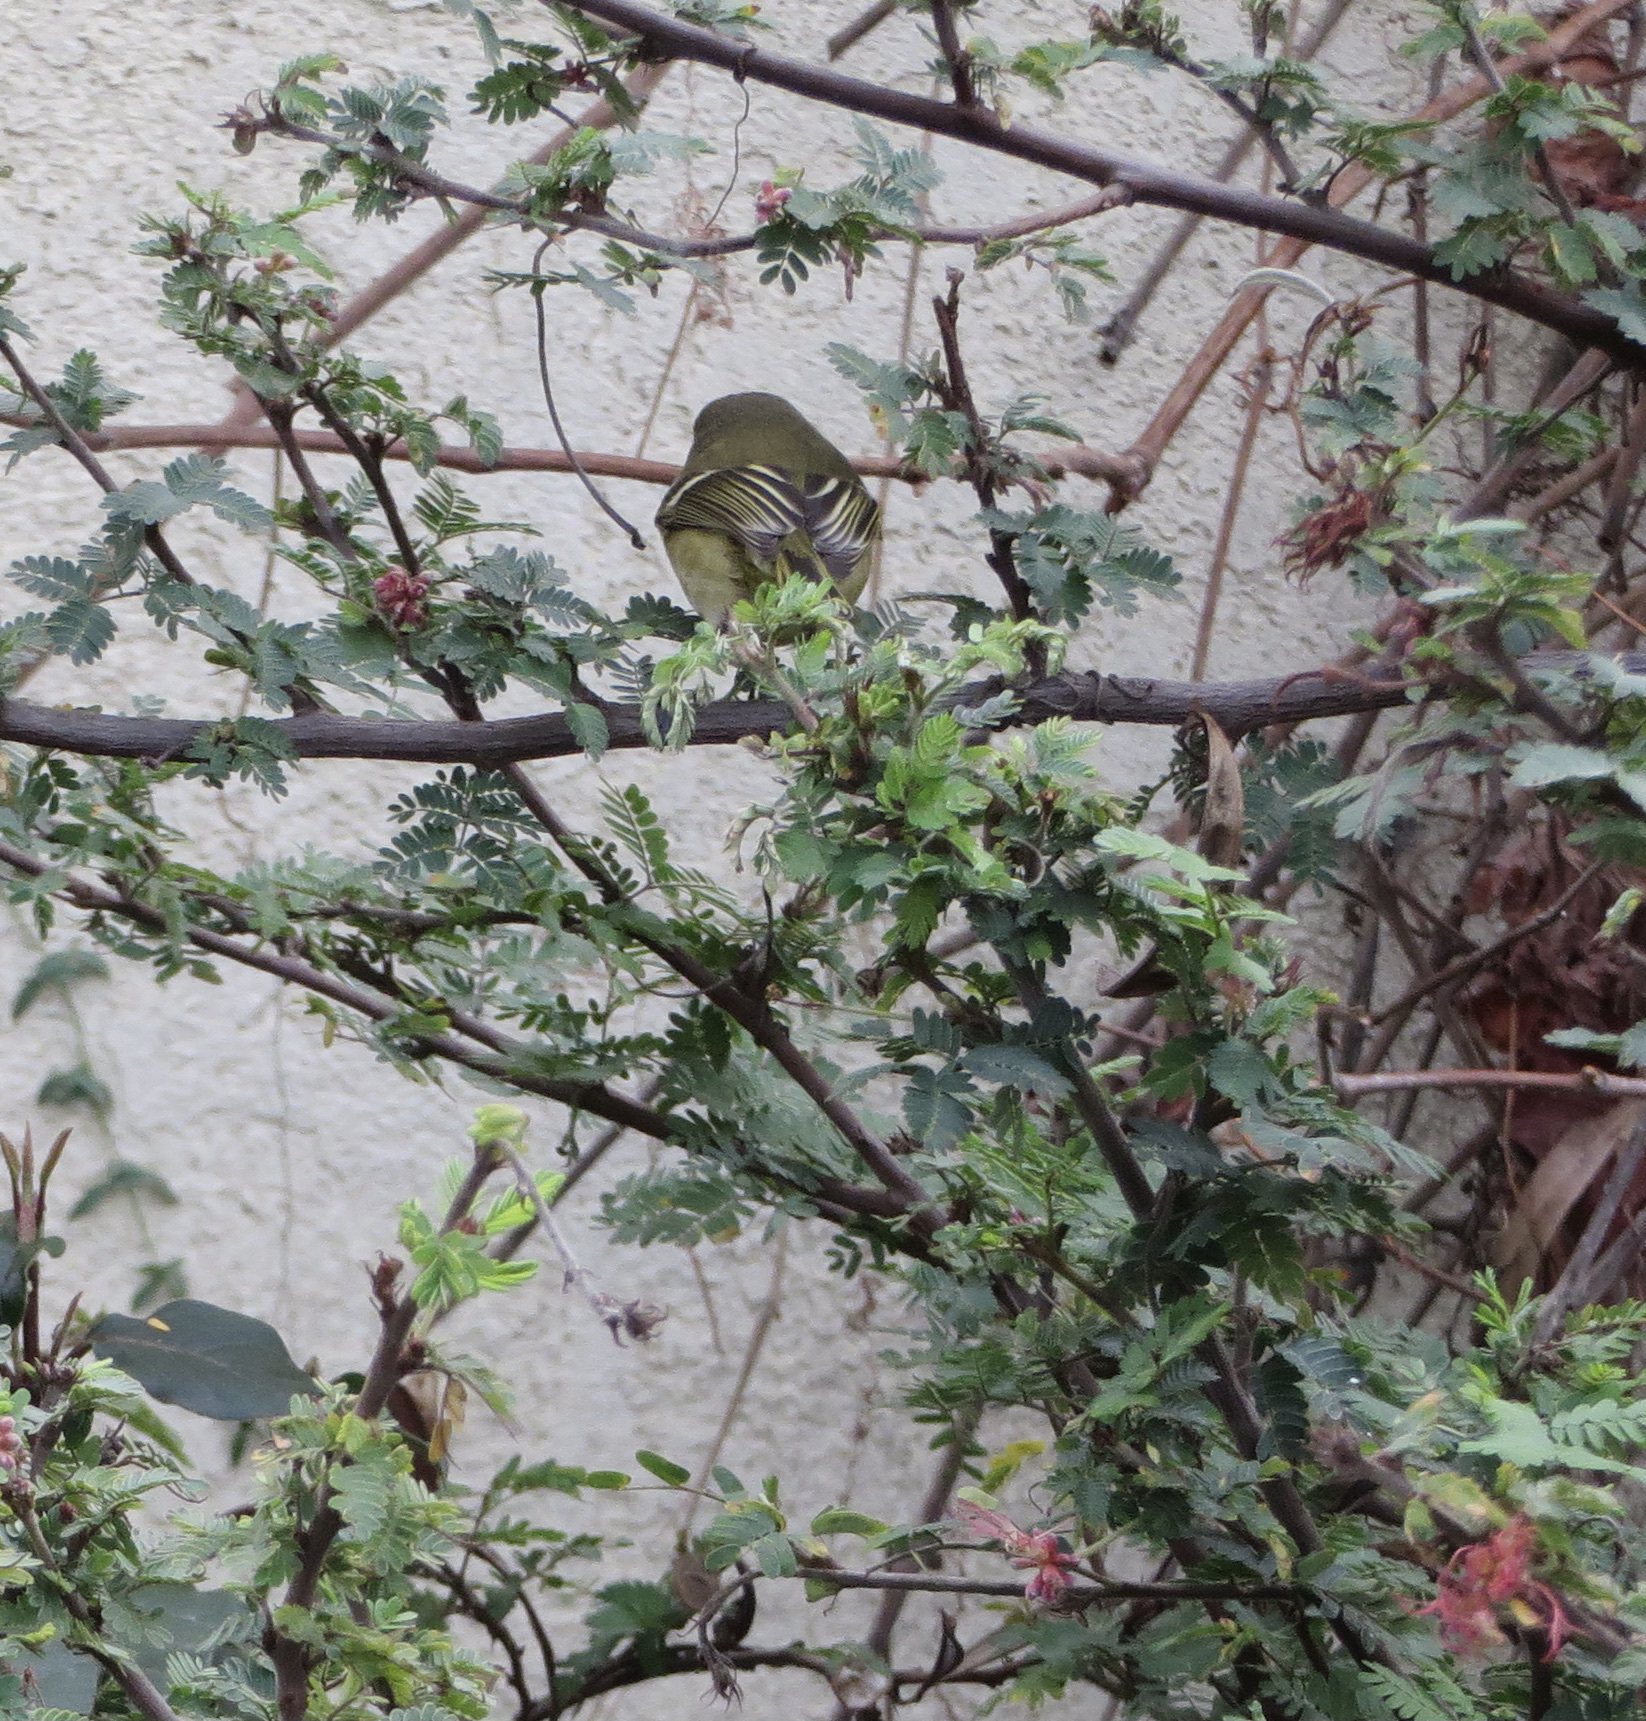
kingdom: Animalia
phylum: Chordata
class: Aves
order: Passeriformes
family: Regulidae
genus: Regulus
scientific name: Regulus calendula
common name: Ruby-crowned kinglet
